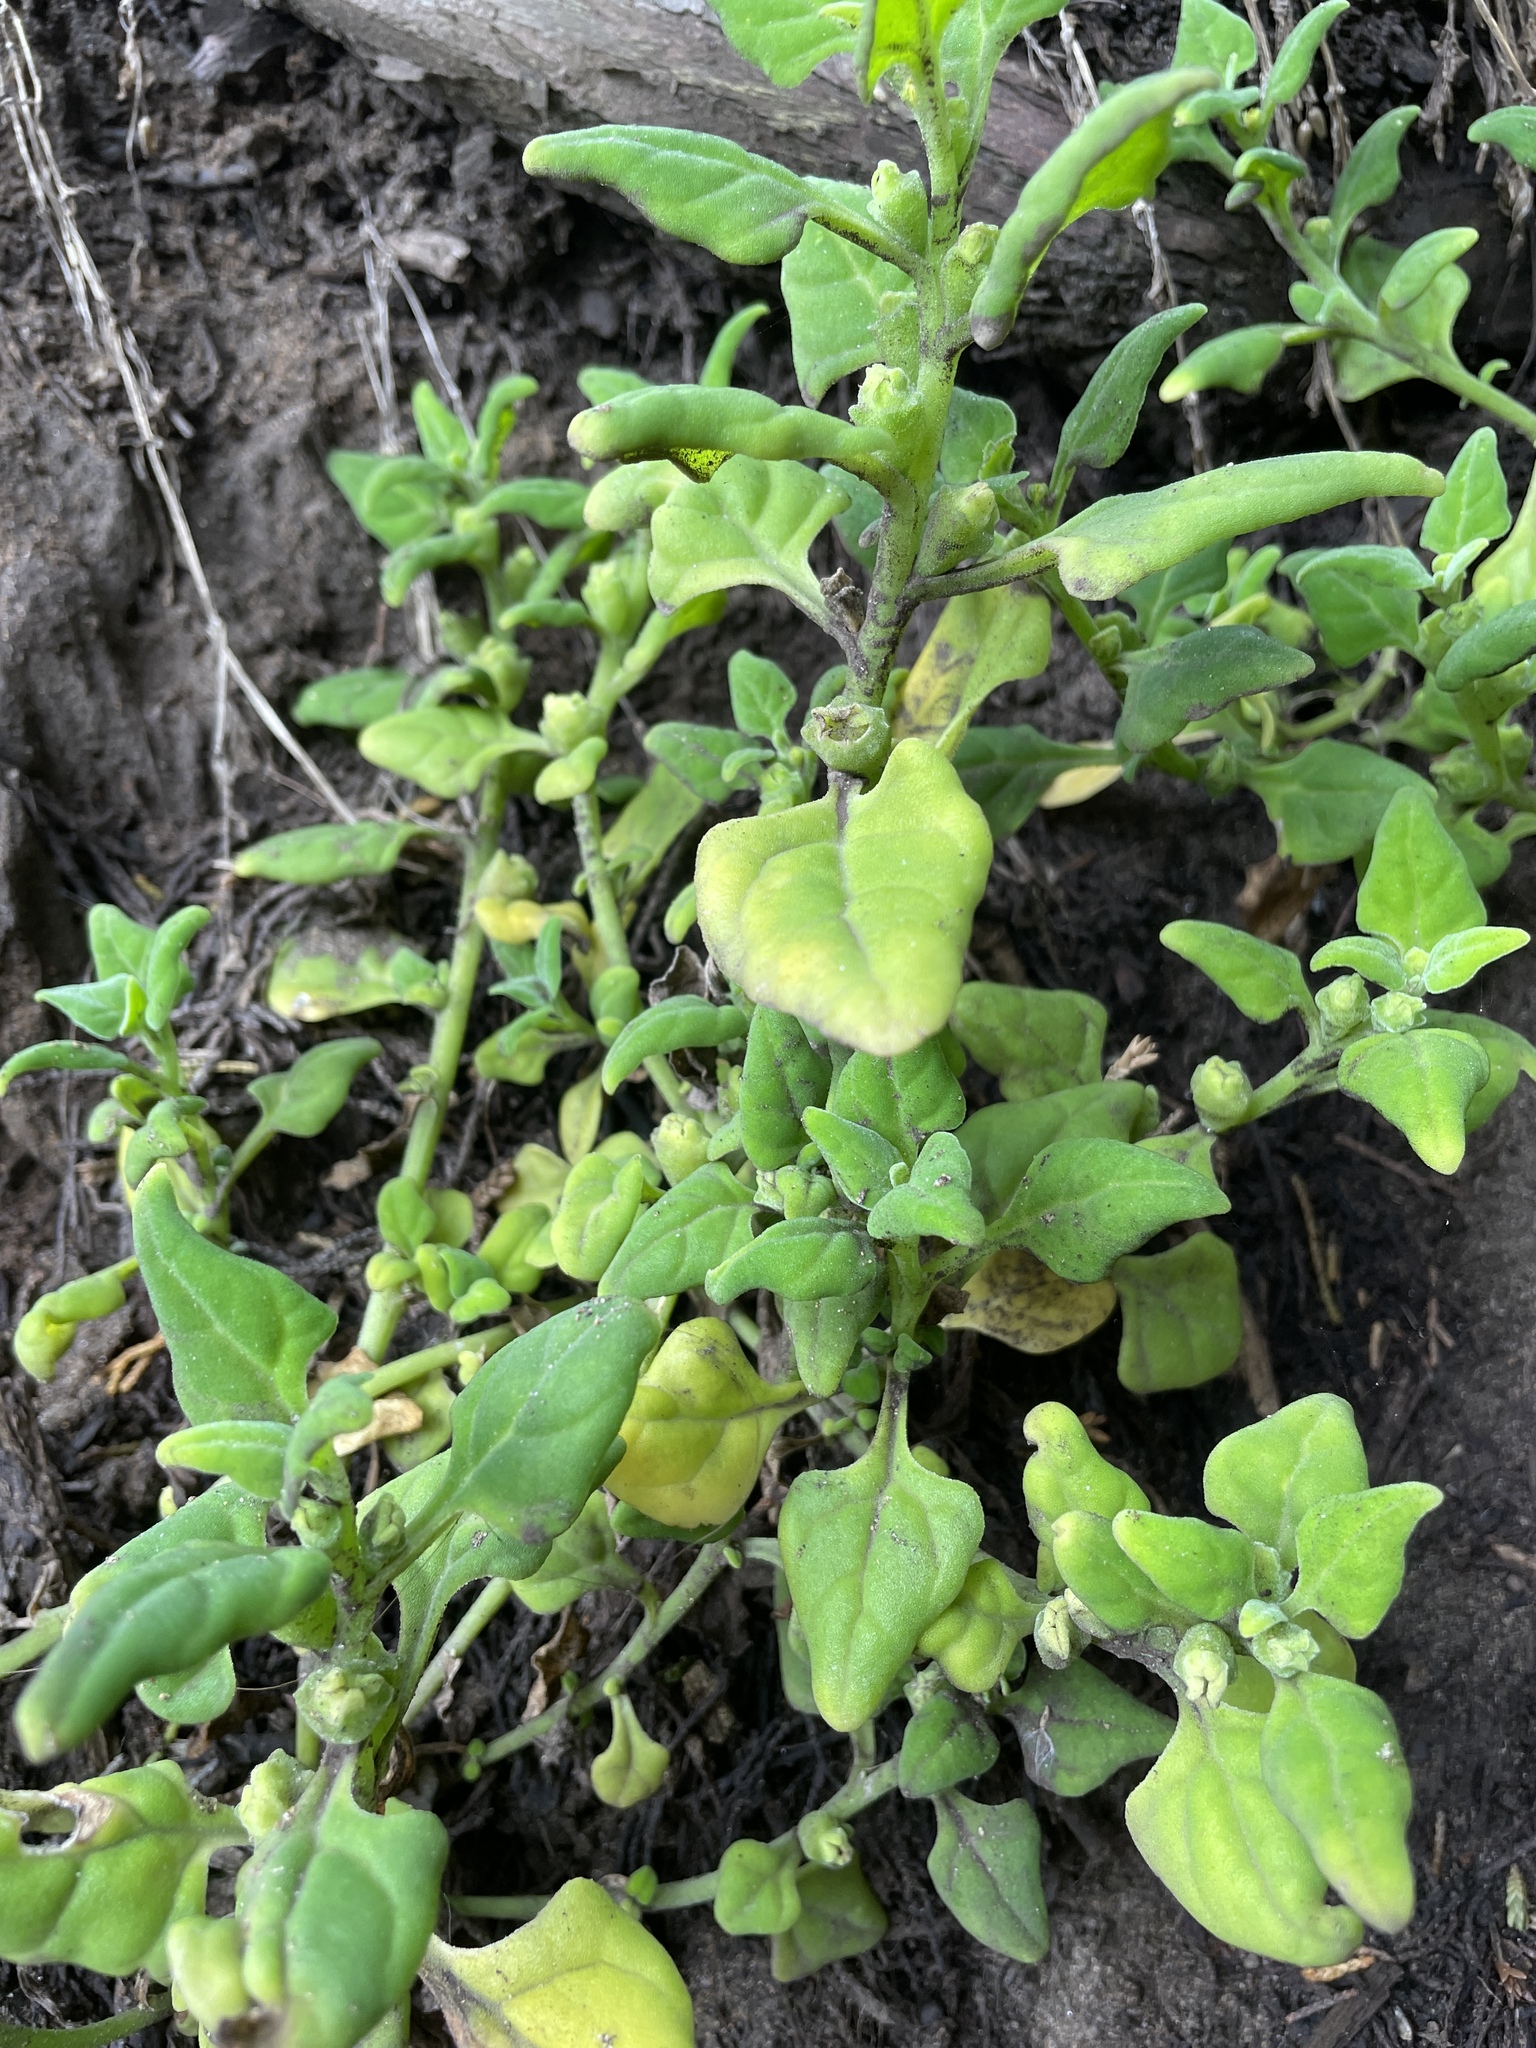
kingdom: Plantae
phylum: Tracheophyta
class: Magnoliopsida
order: Caryophyllales
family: Aizoaceae
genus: Tetragonia
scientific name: Tetragonia tetragonoides
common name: New zealand-spinach
